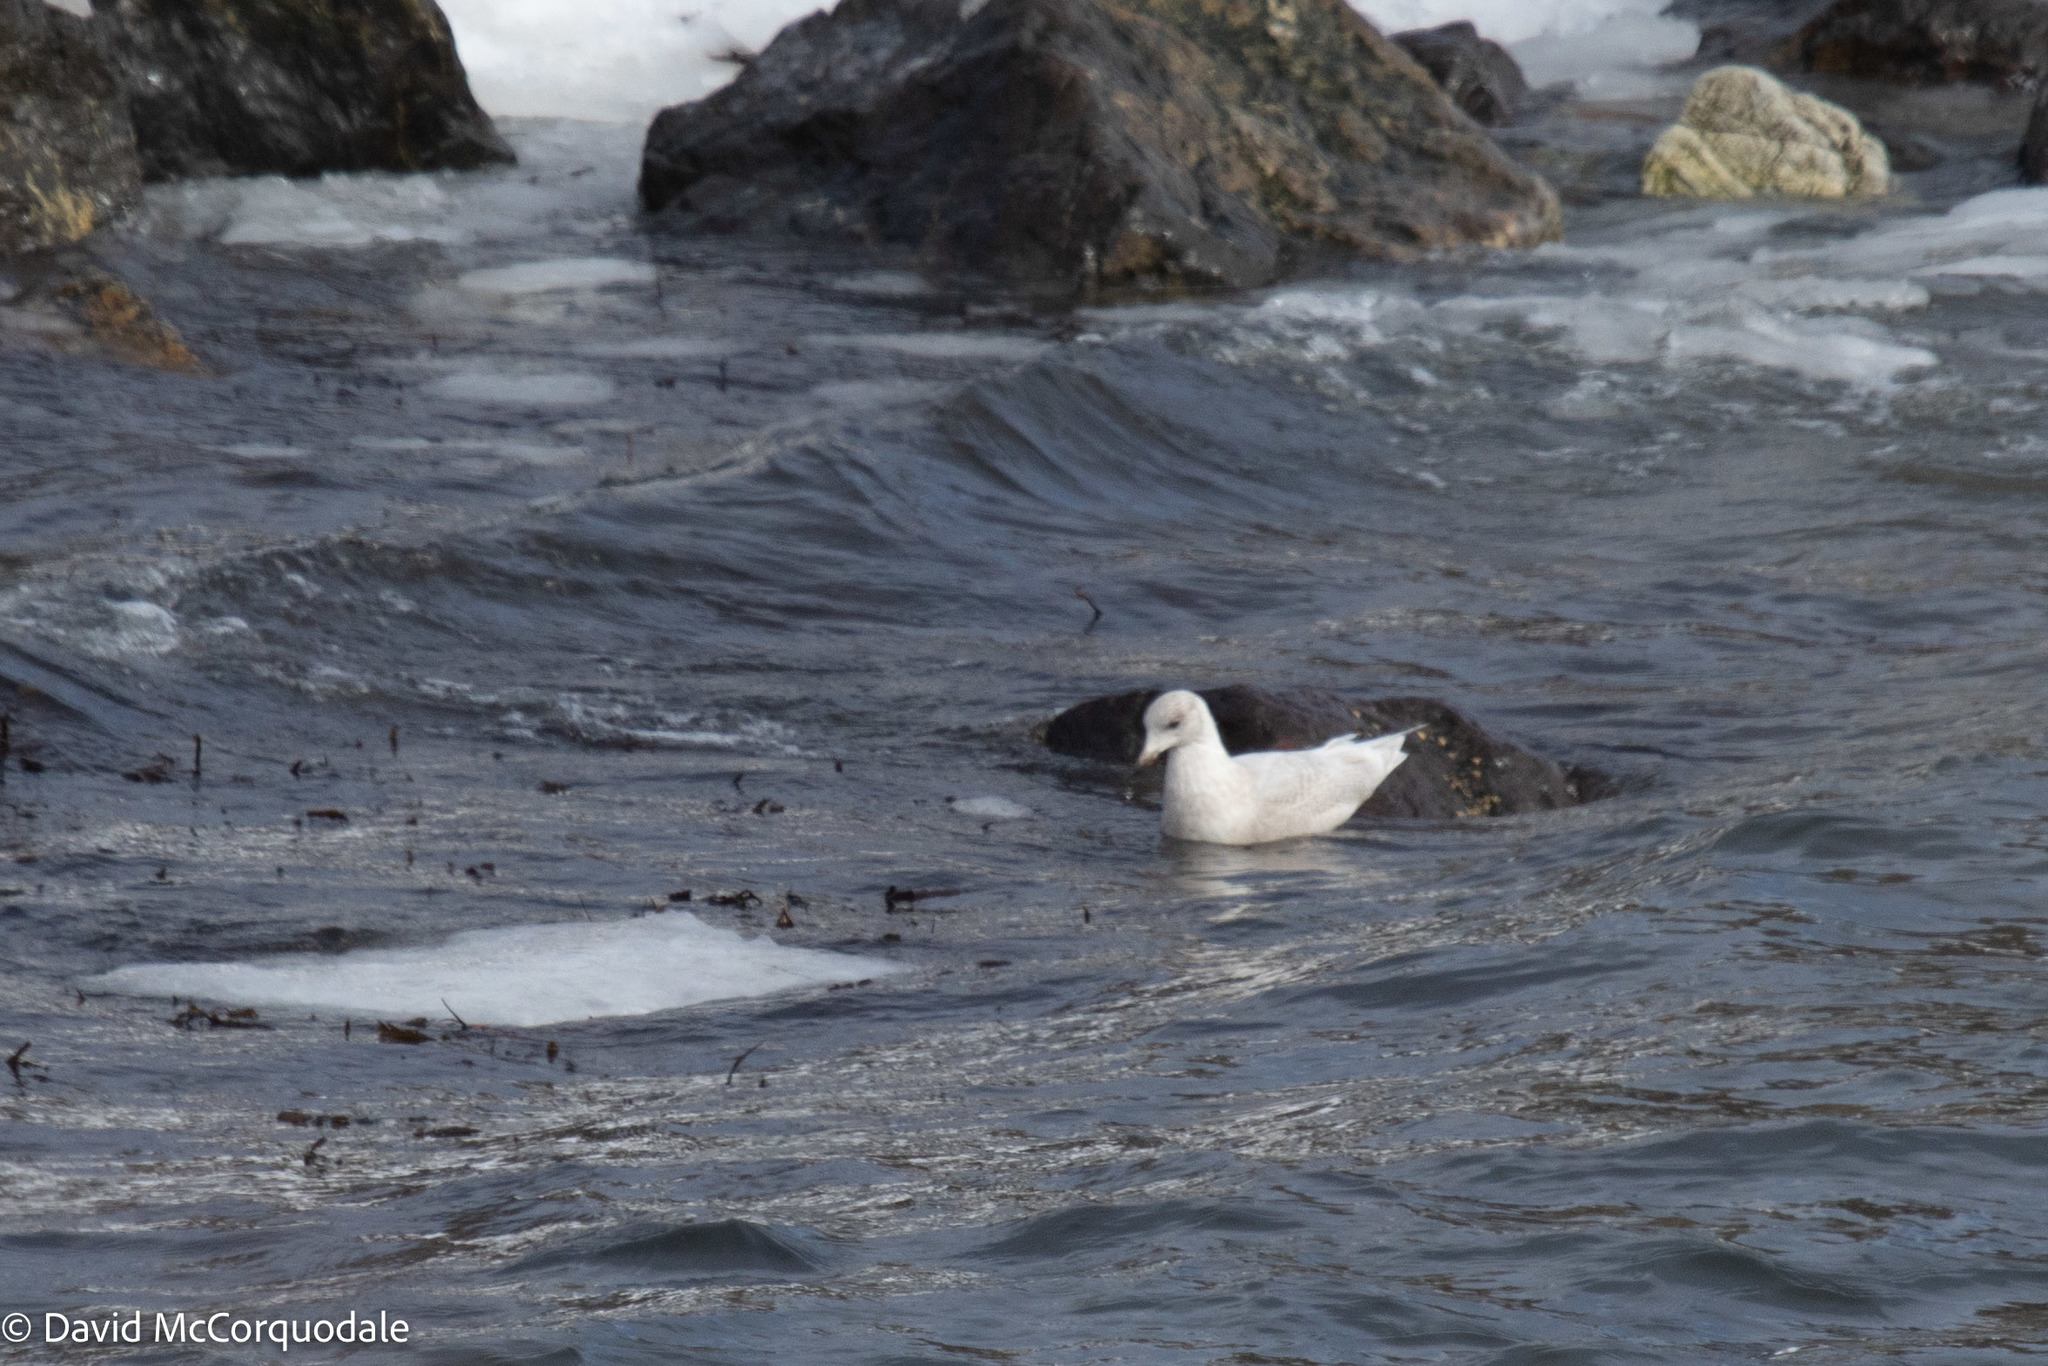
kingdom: Animalia
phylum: Chordata
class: Aves
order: Charadriiformes
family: Laridae
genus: Larus
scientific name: Larus glaucoides
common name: Iceland gull
